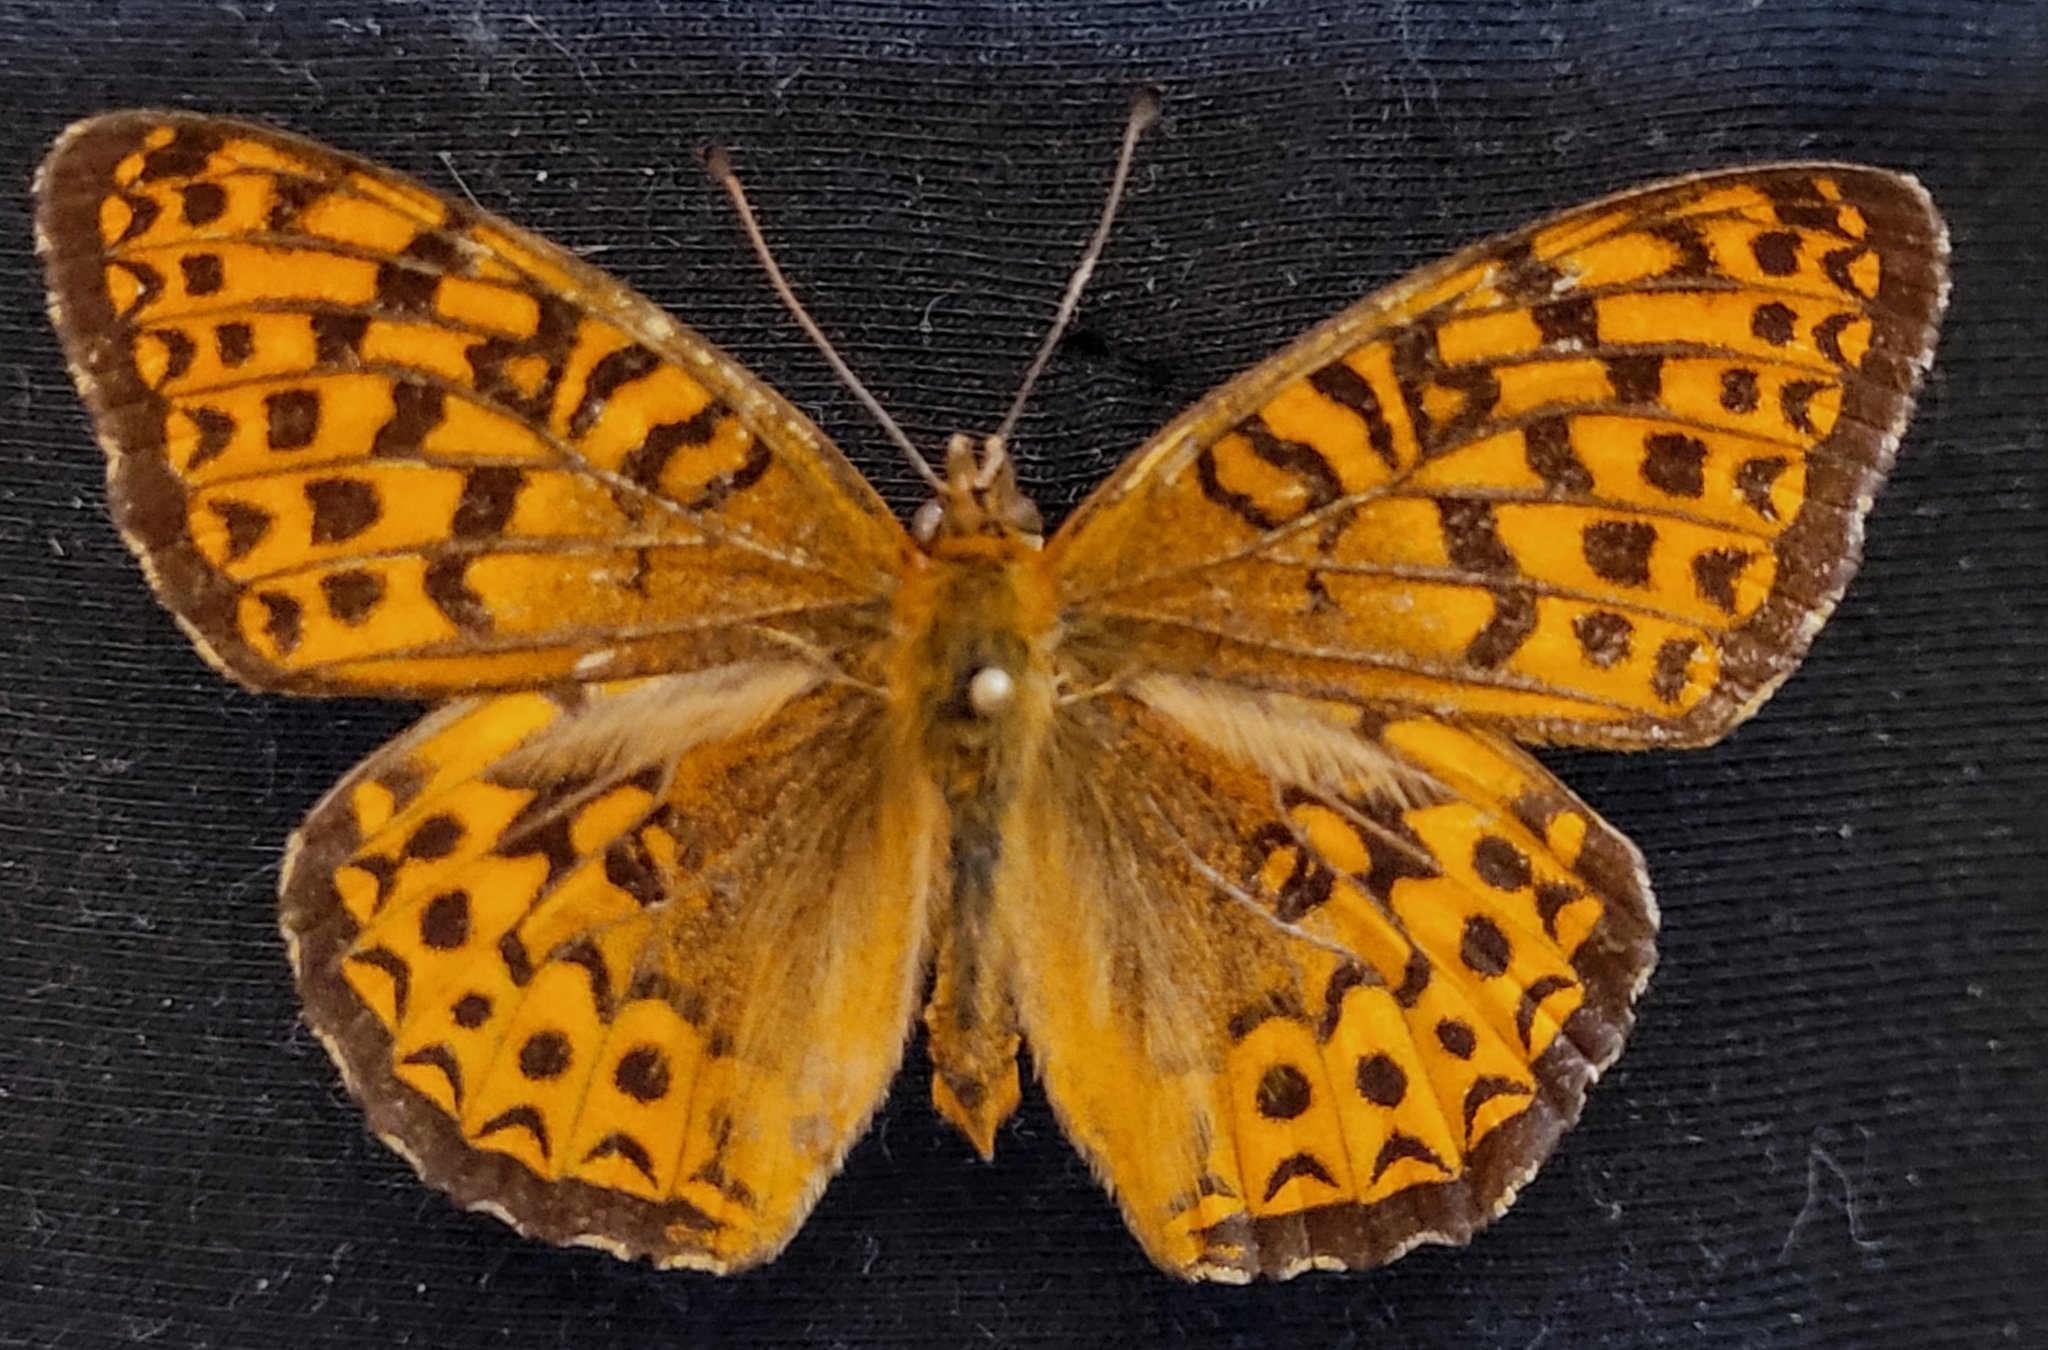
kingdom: Animalia
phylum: Arthropoda
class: Insecta
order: Lepidoptera
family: Nymphalidae
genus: Speyeria
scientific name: Speyeria atlantis
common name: Atlantis fritillary
